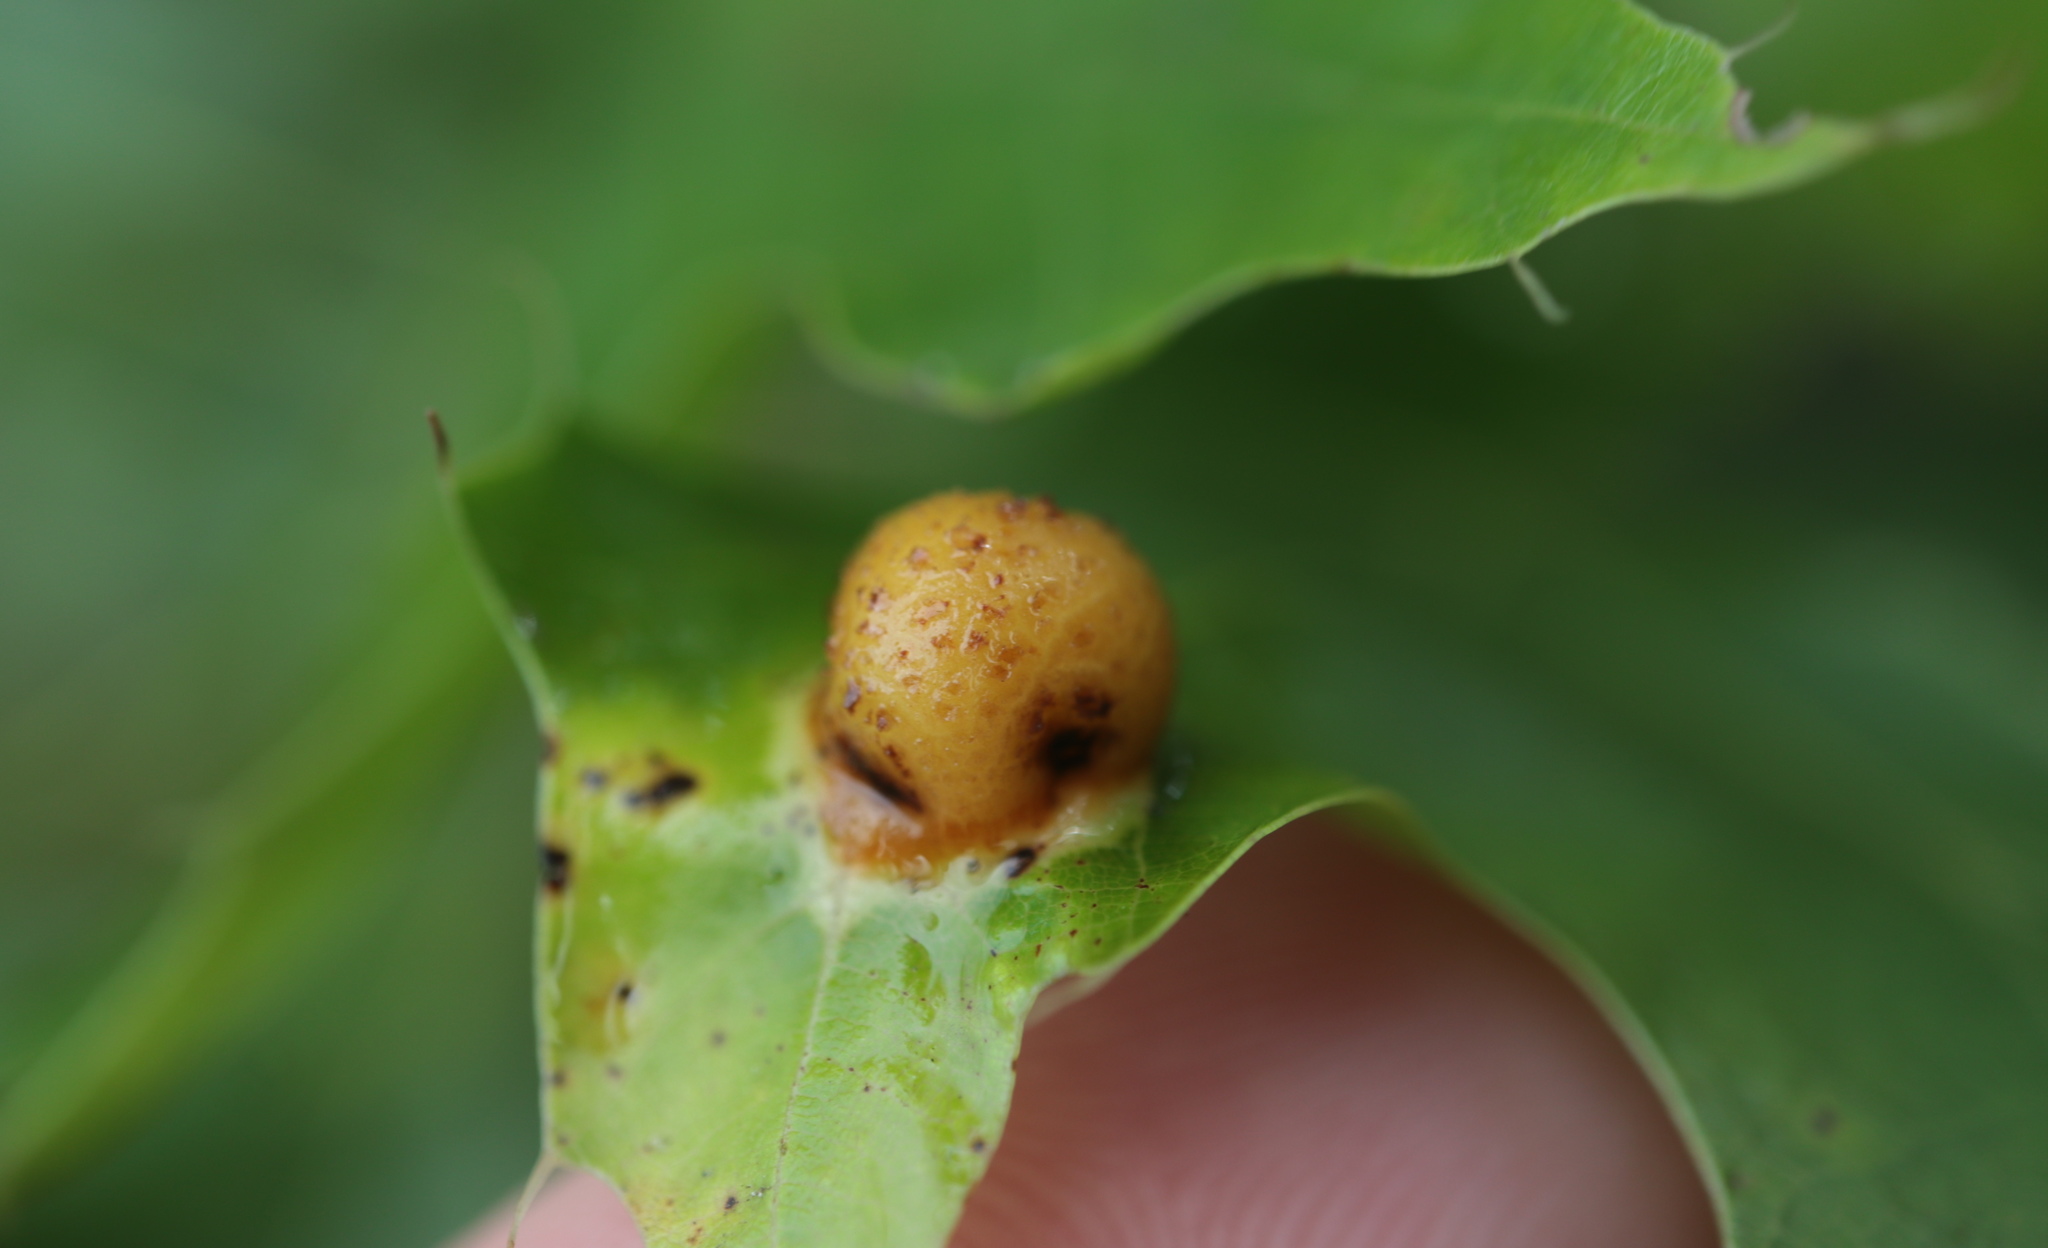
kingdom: Animalia
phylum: Arthropoda
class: Insecta
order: Diptera
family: Cecidomyiidae
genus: Polystepha
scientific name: Polystepha pilulae
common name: Oak leaf gall midge
